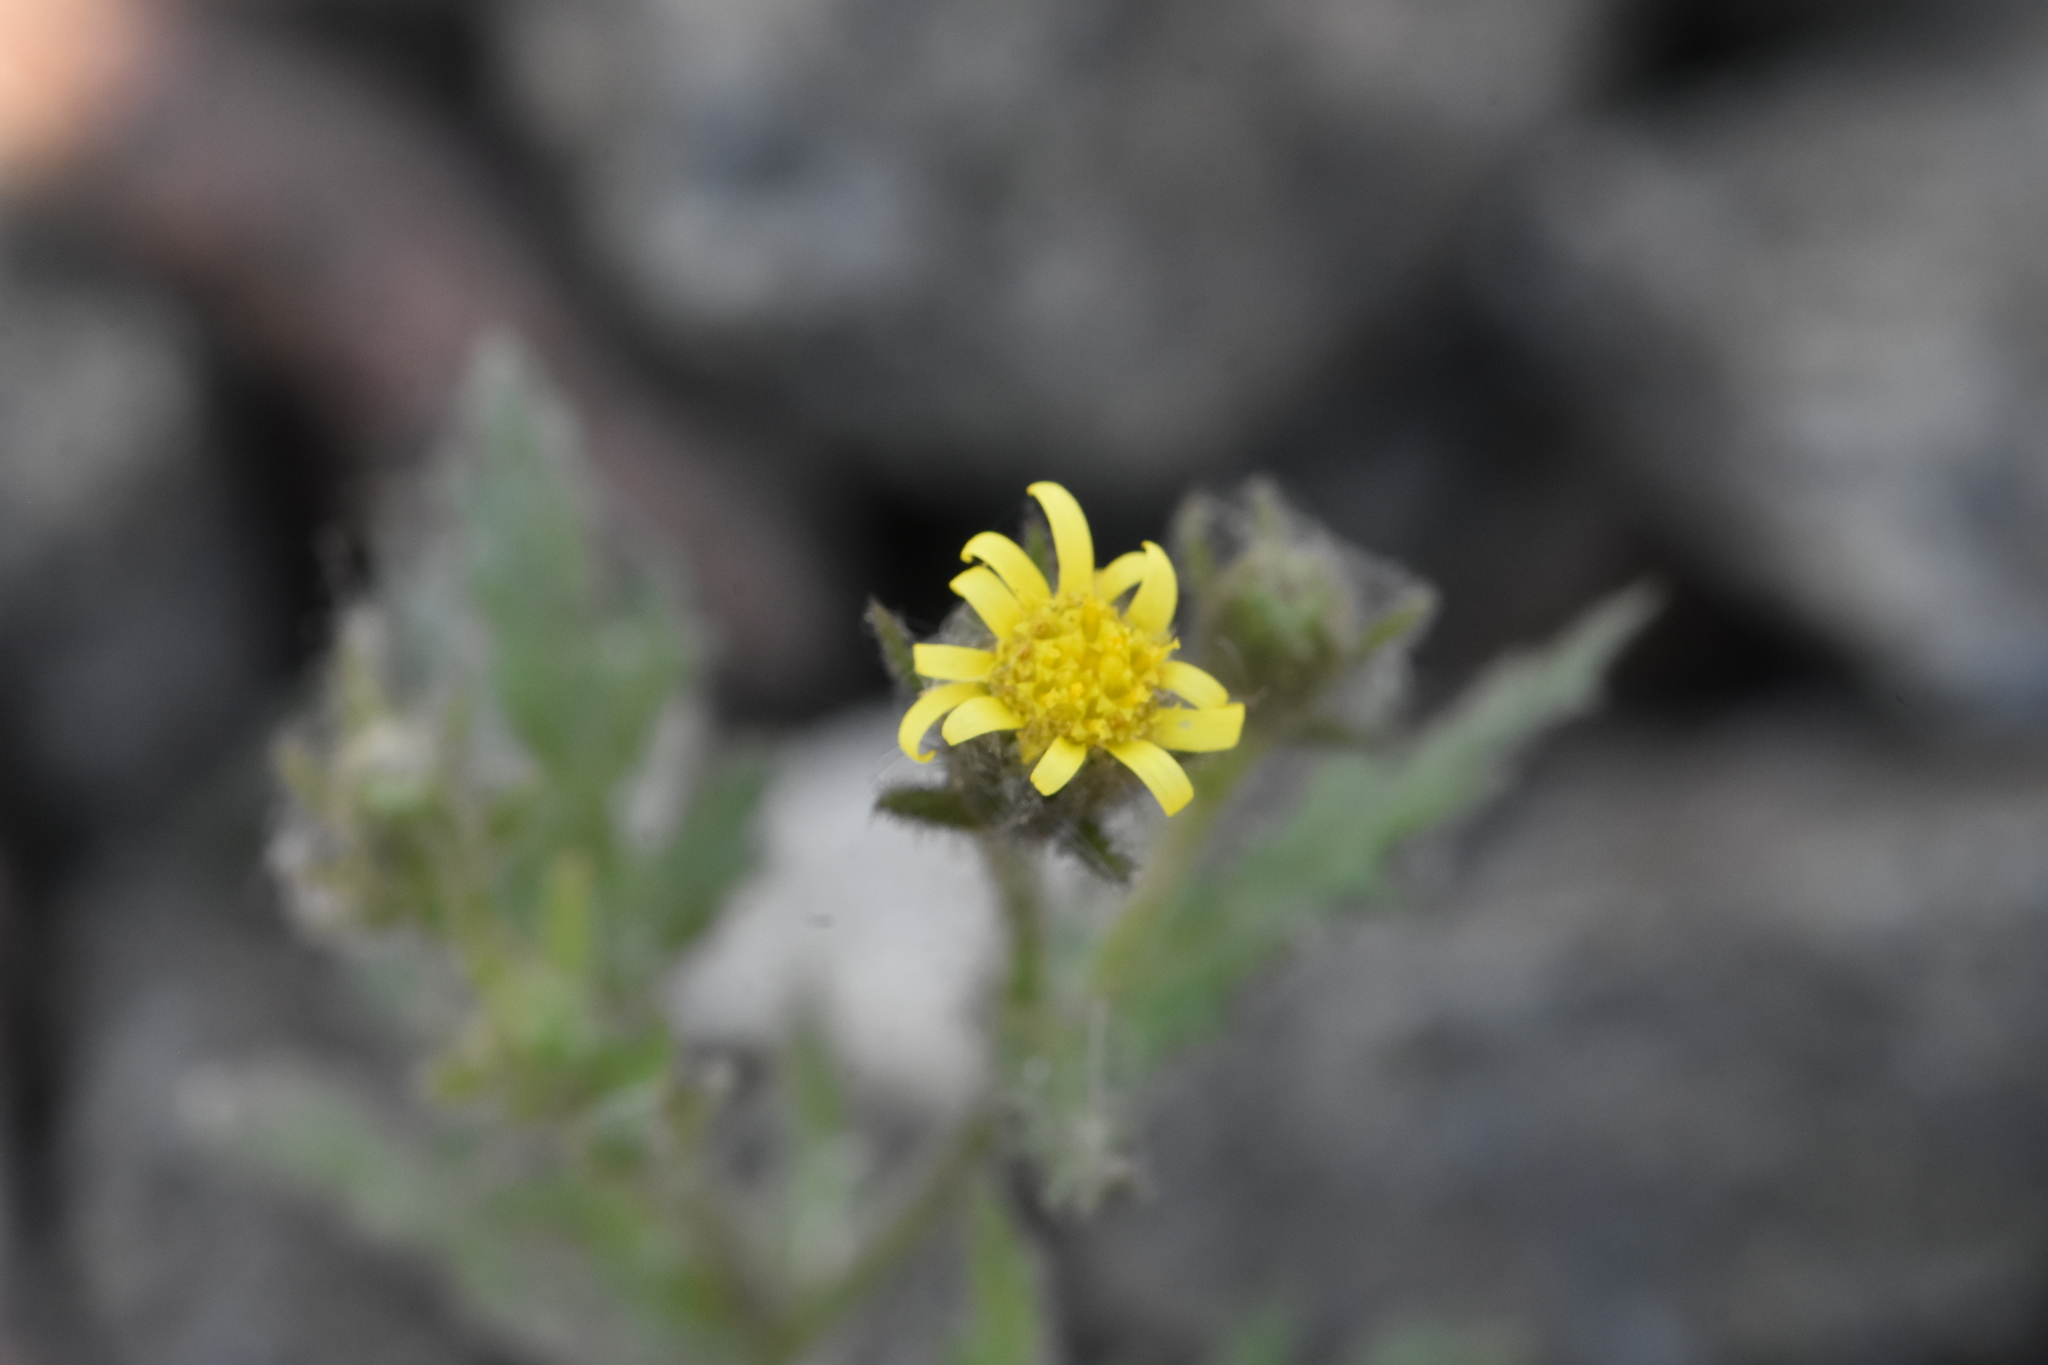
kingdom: Plantae
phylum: Tracheophyta
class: Magnoliopsida
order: Asterales
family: Asteraceae
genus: Senecio
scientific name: Senecio viscosus
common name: Sticky groundsel
